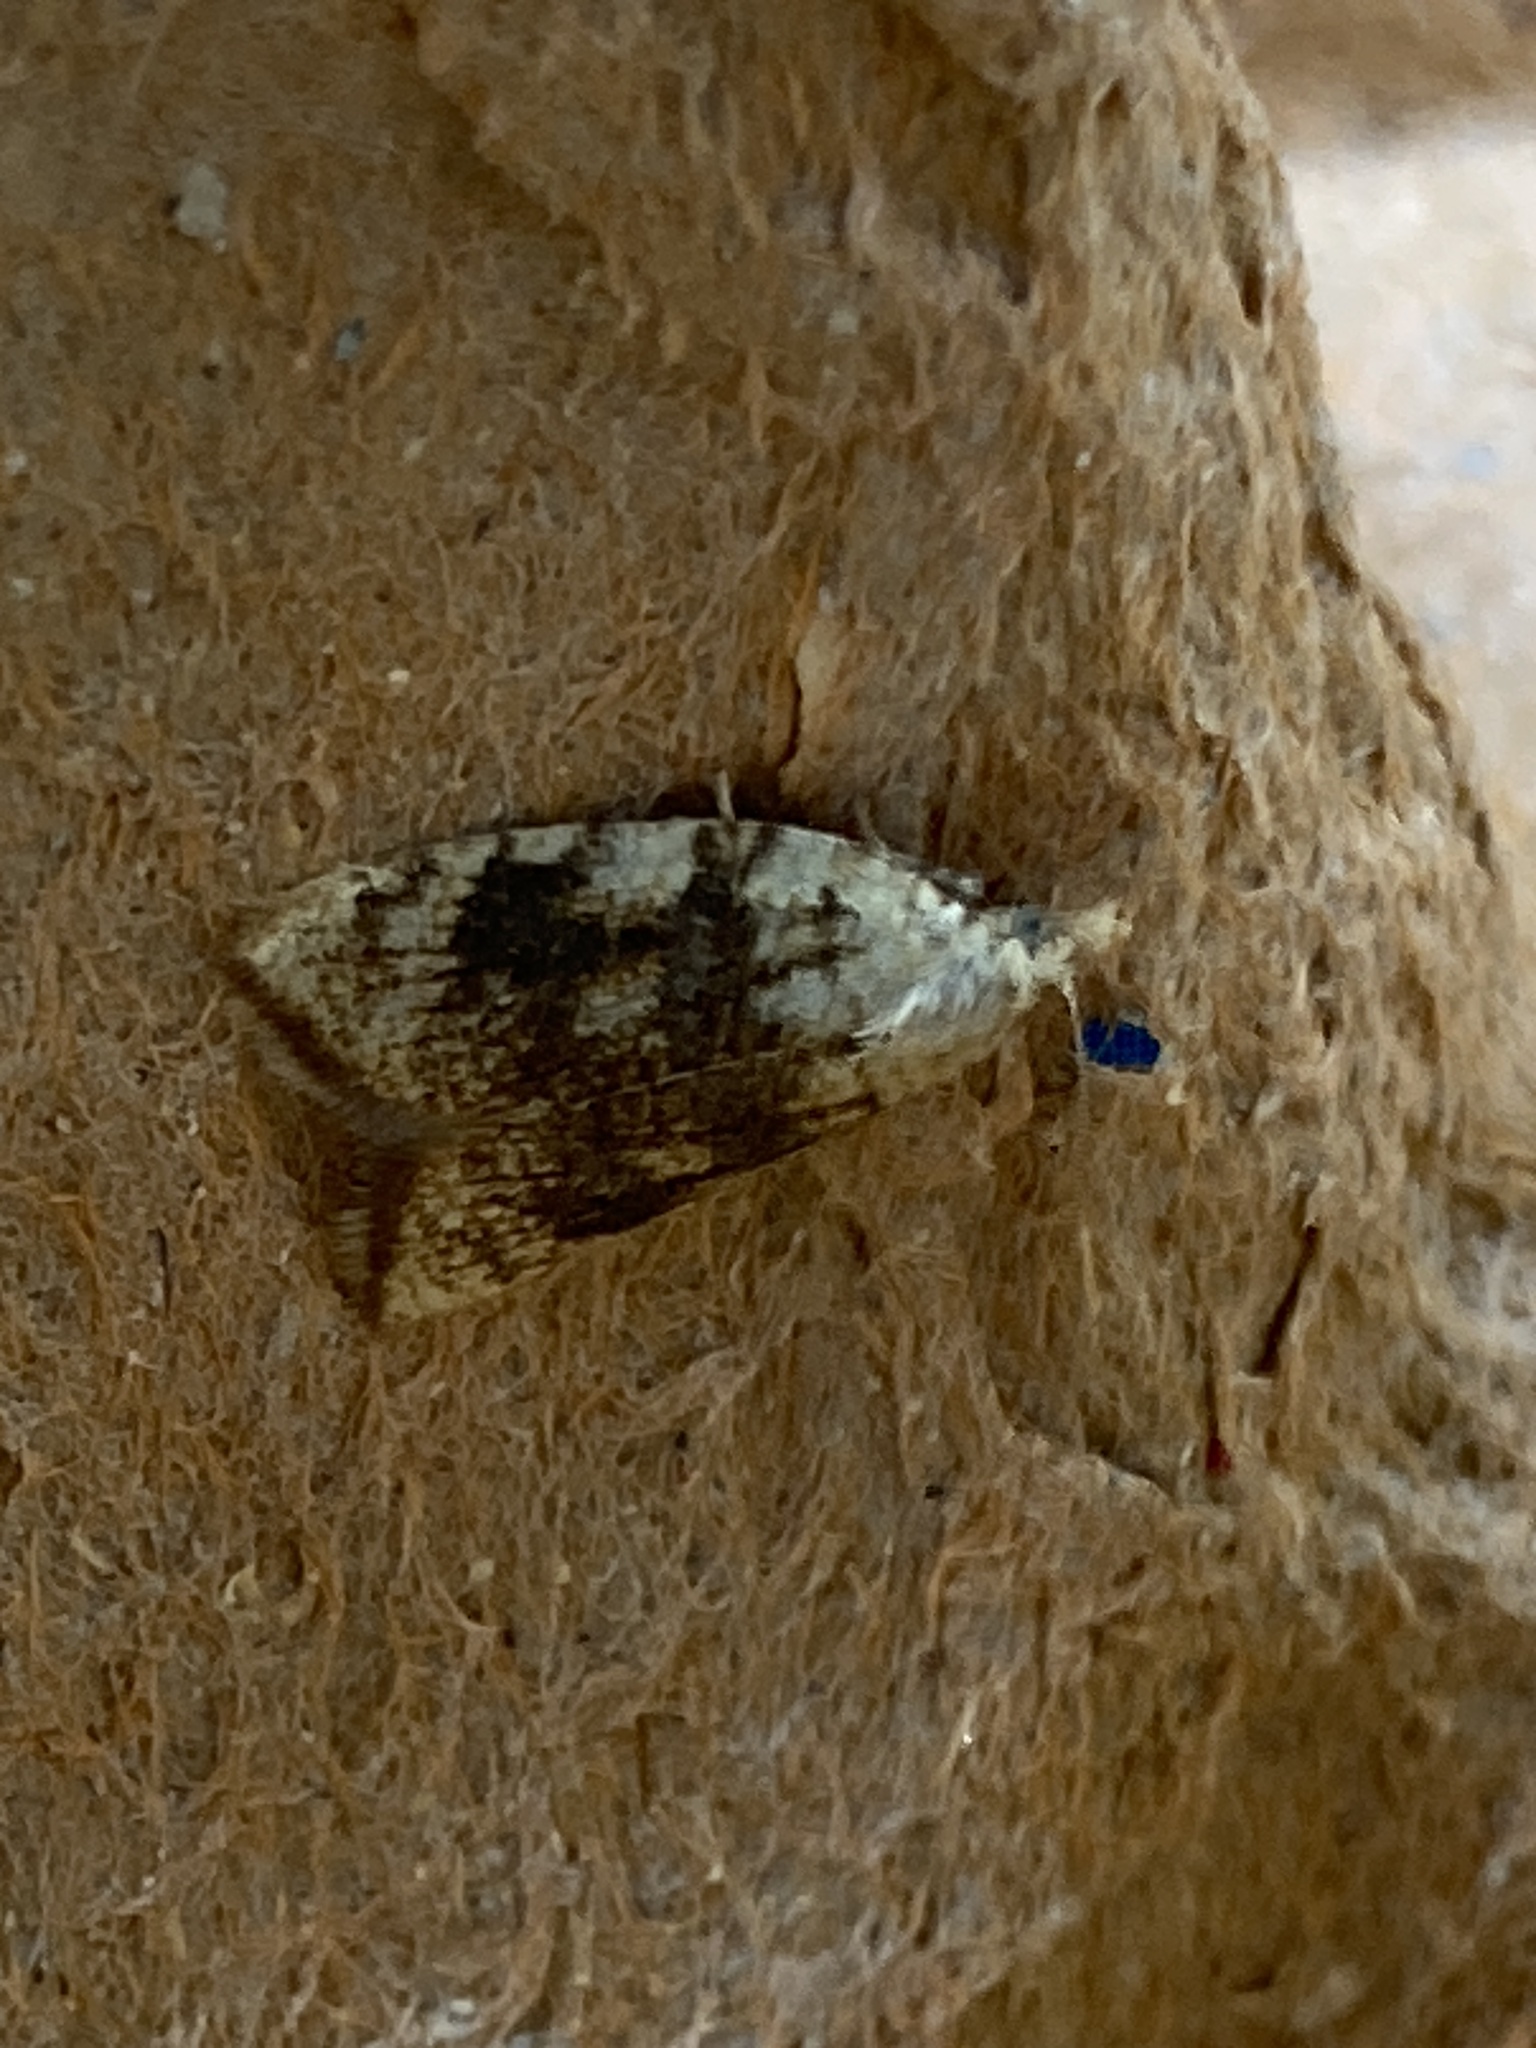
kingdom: Animalia
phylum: Arthropoda
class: Insecta
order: Lepidoptera
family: Tortricidae
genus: Aleimma
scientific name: Aleimma loeflingiana
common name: Yellow oak button
